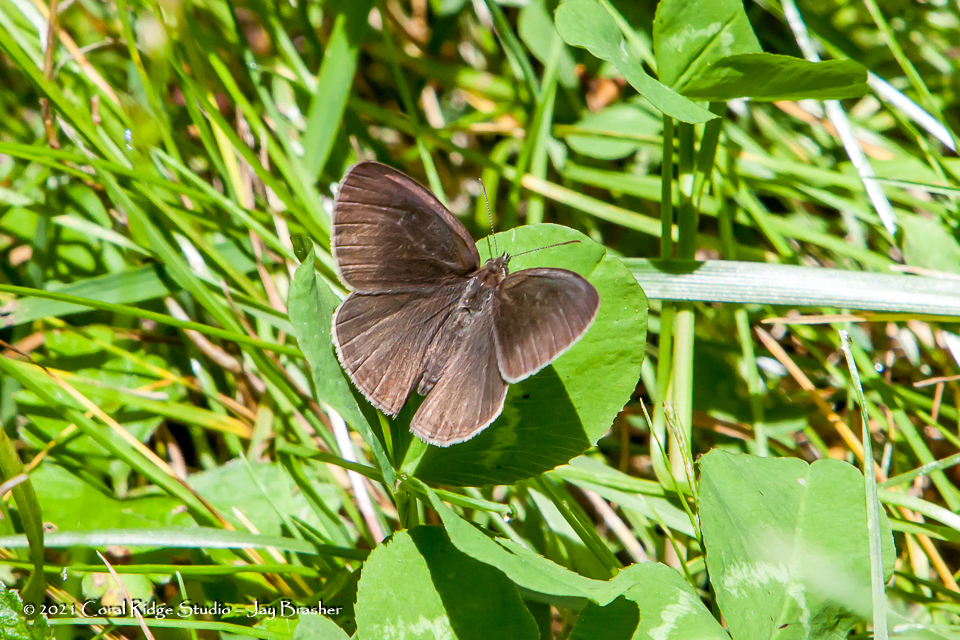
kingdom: Animalia
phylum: Arthropoda
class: Insecta
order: Lepidoptera
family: Nymphalidae
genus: Hermeuptychia
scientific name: Hermeuptychia hermes
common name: Hermes satyr
